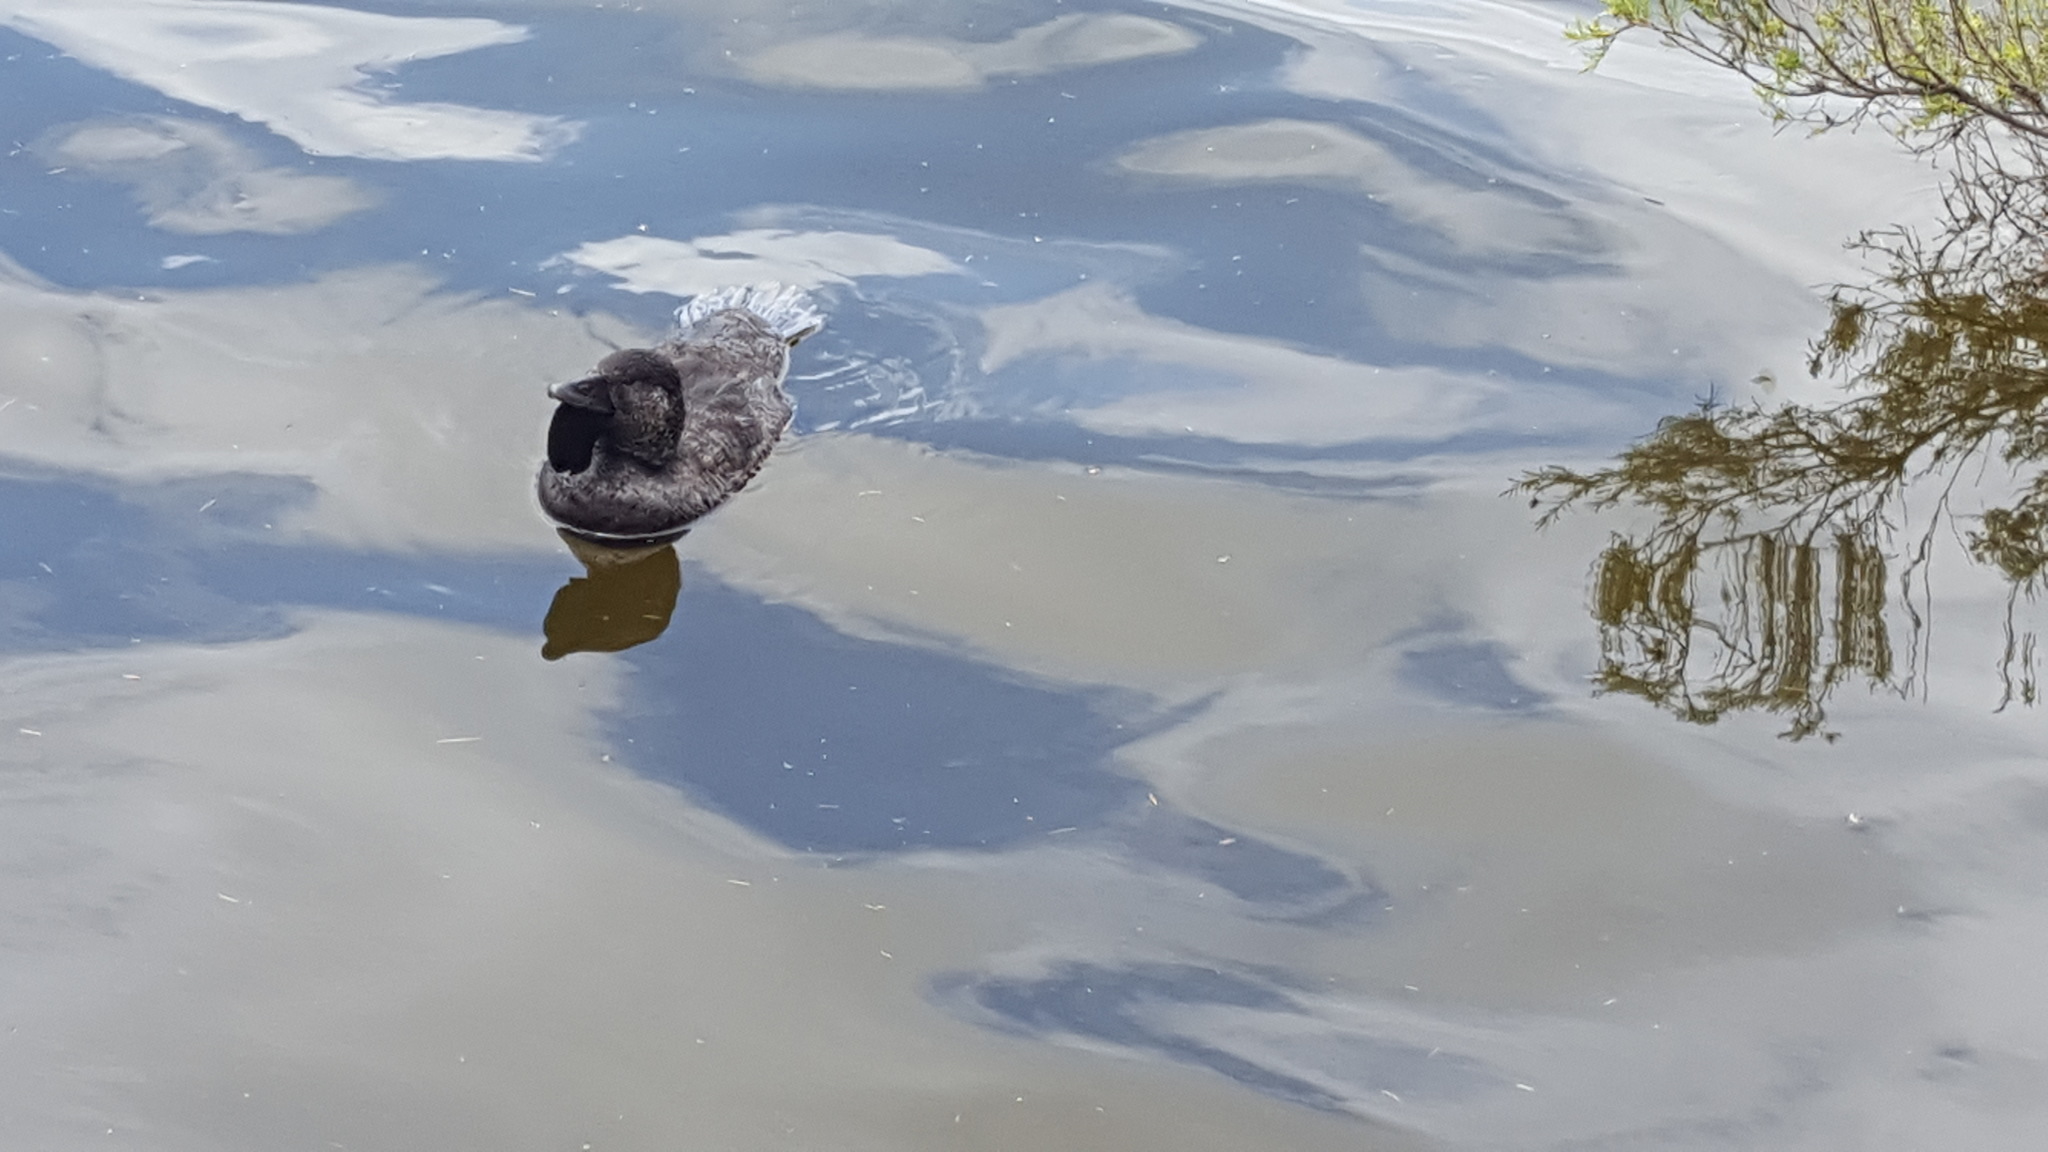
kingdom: Animalia
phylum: Chordata
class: Aves
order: Anseriformes
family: Anatidae
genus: Biziura
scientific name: Biziura lobata
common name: Musk duck
